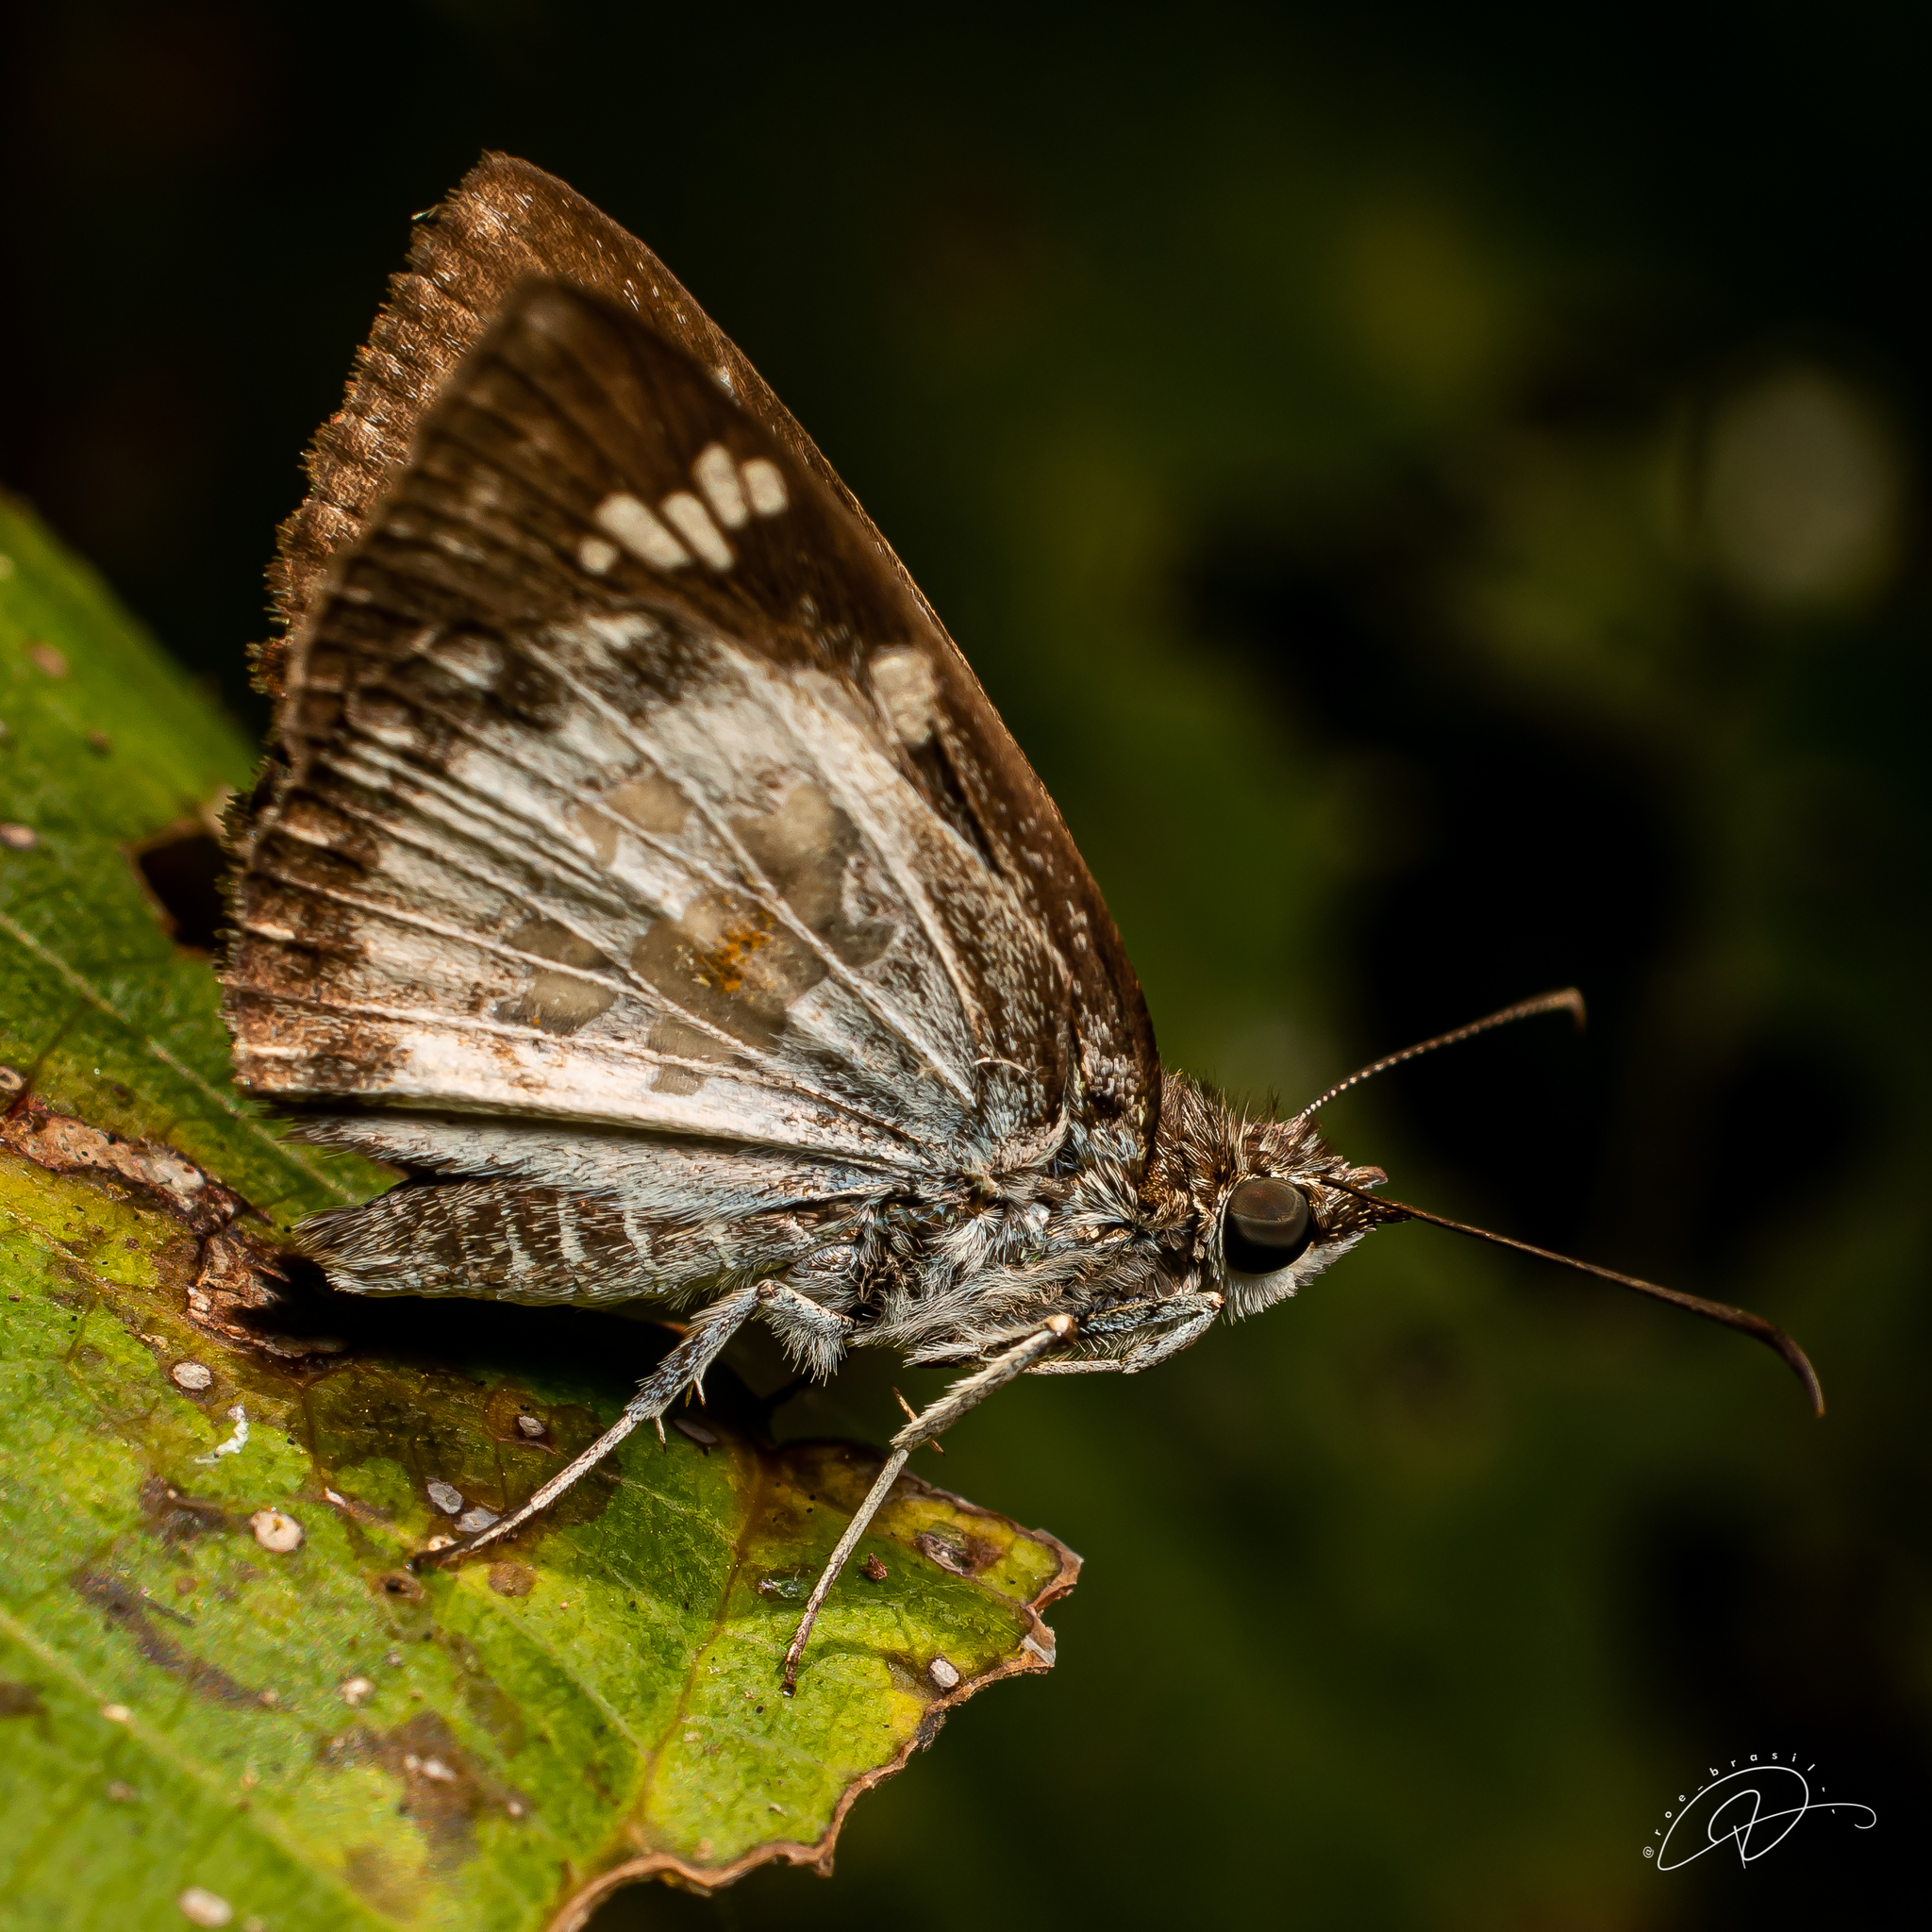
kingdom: Animalia
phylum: Arthropoda
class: Insecta
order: Lepidoptera
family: Hesperiidae
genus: Xenophanes
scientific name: Xenophanes tryxus
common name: Glassy-winged skipper
